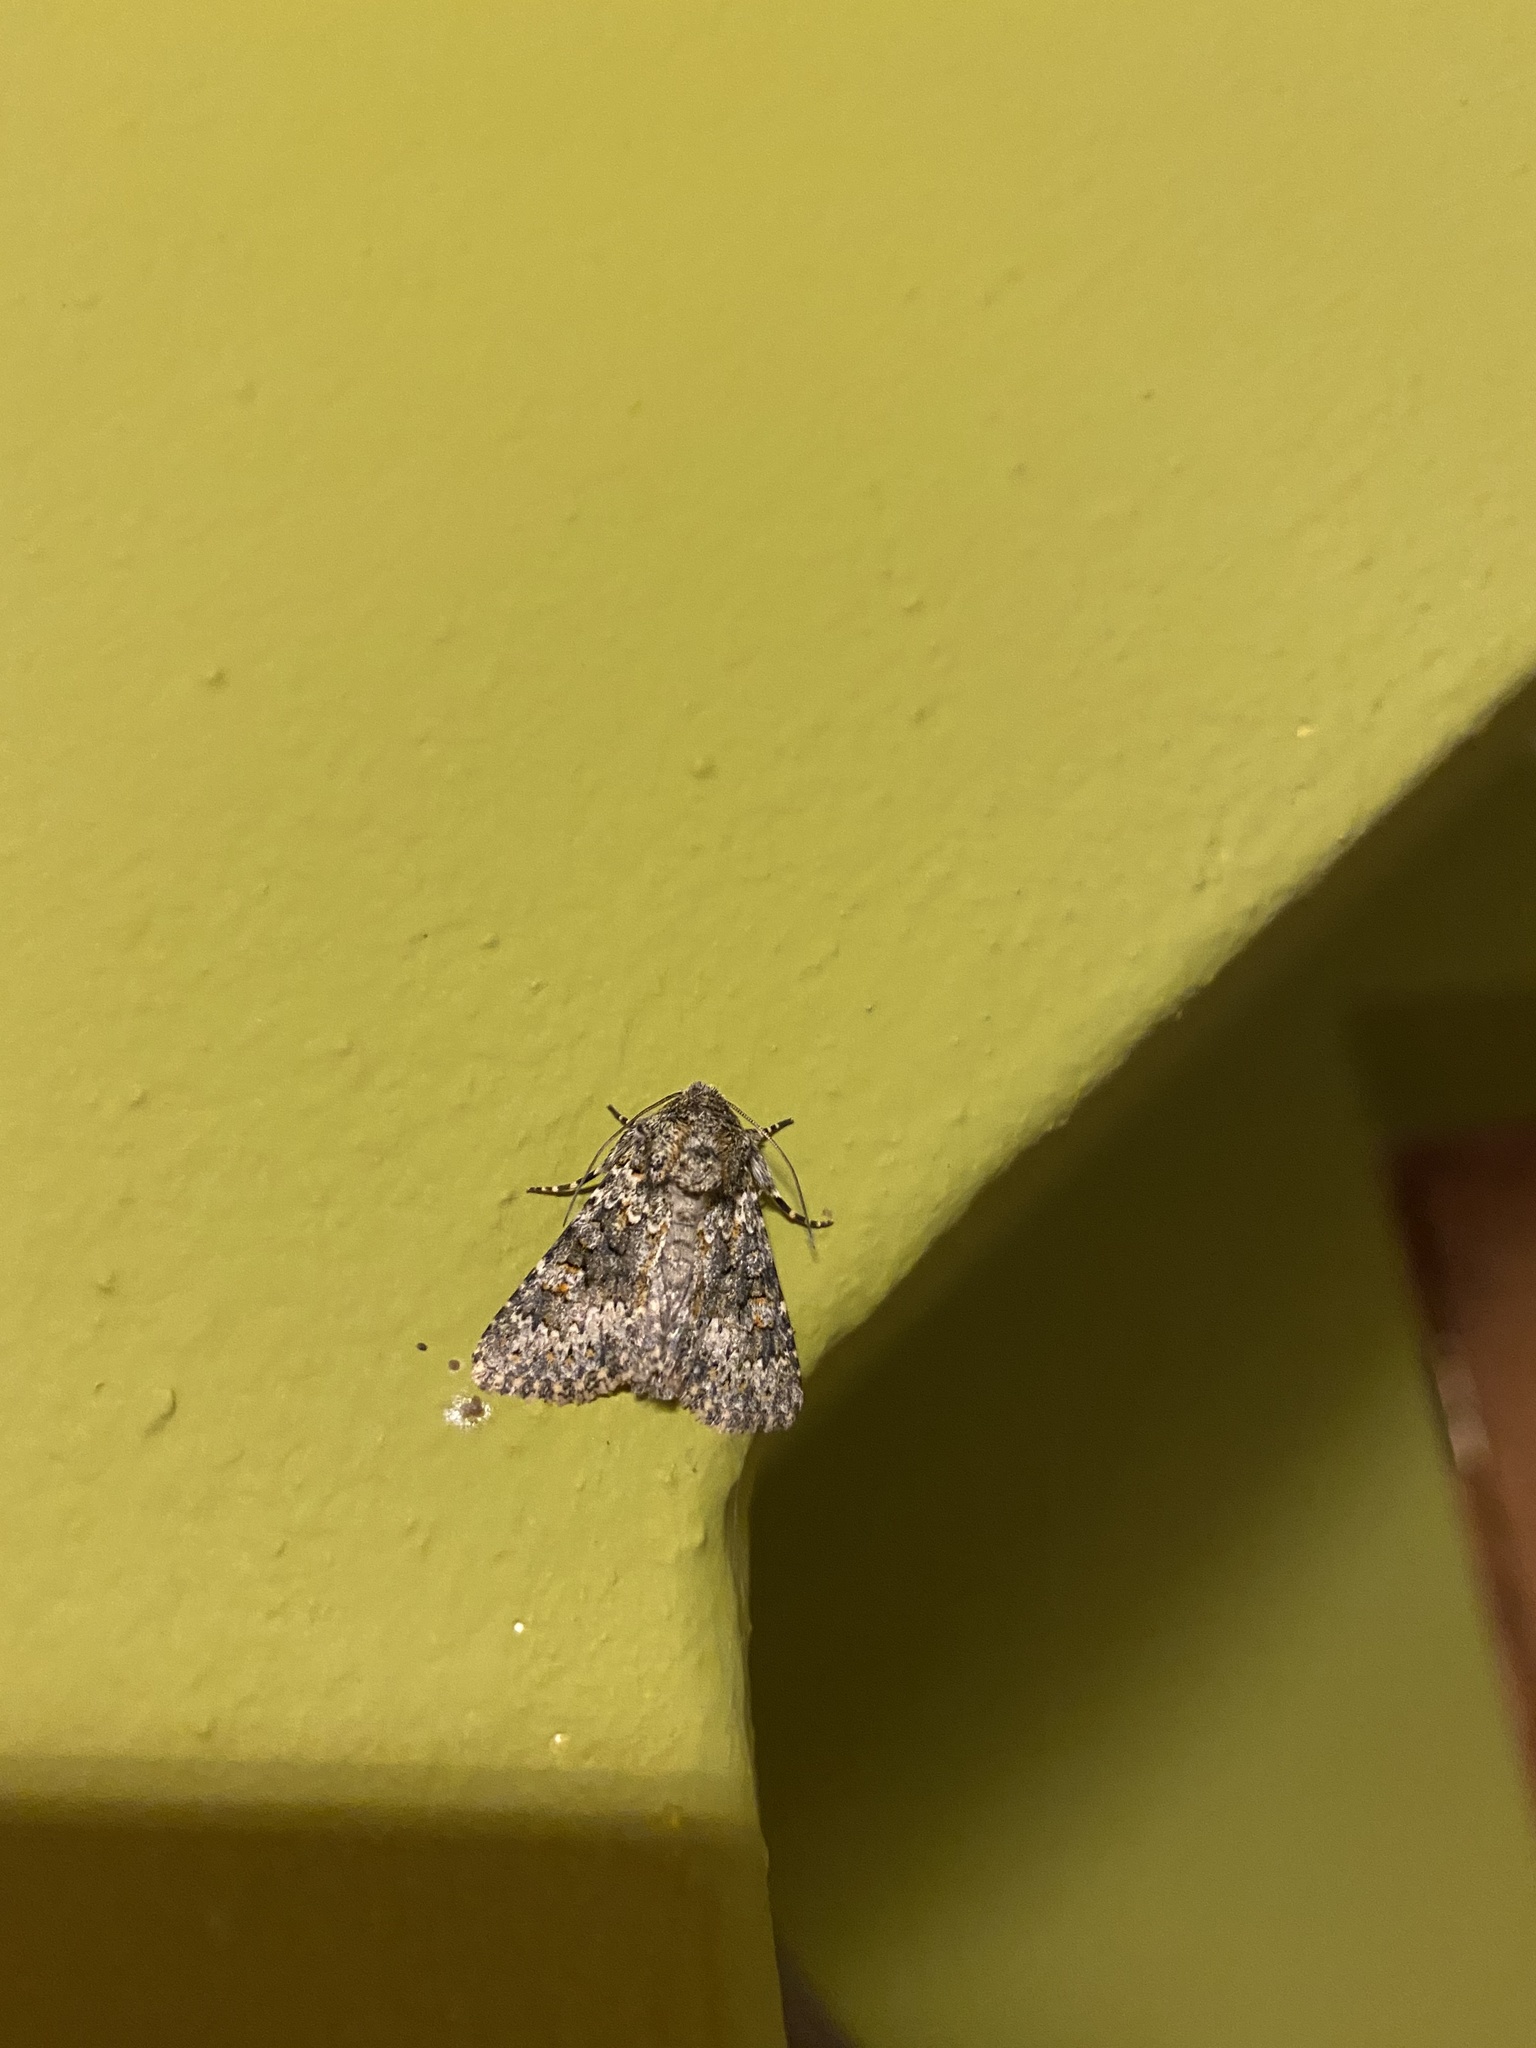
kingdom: Animalia
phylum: Arthropoda
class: Insecta
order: Lepidoptera
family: Noctuidae
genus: Hecatera
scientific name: Hecatera dysodea
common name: Small ranunculus
